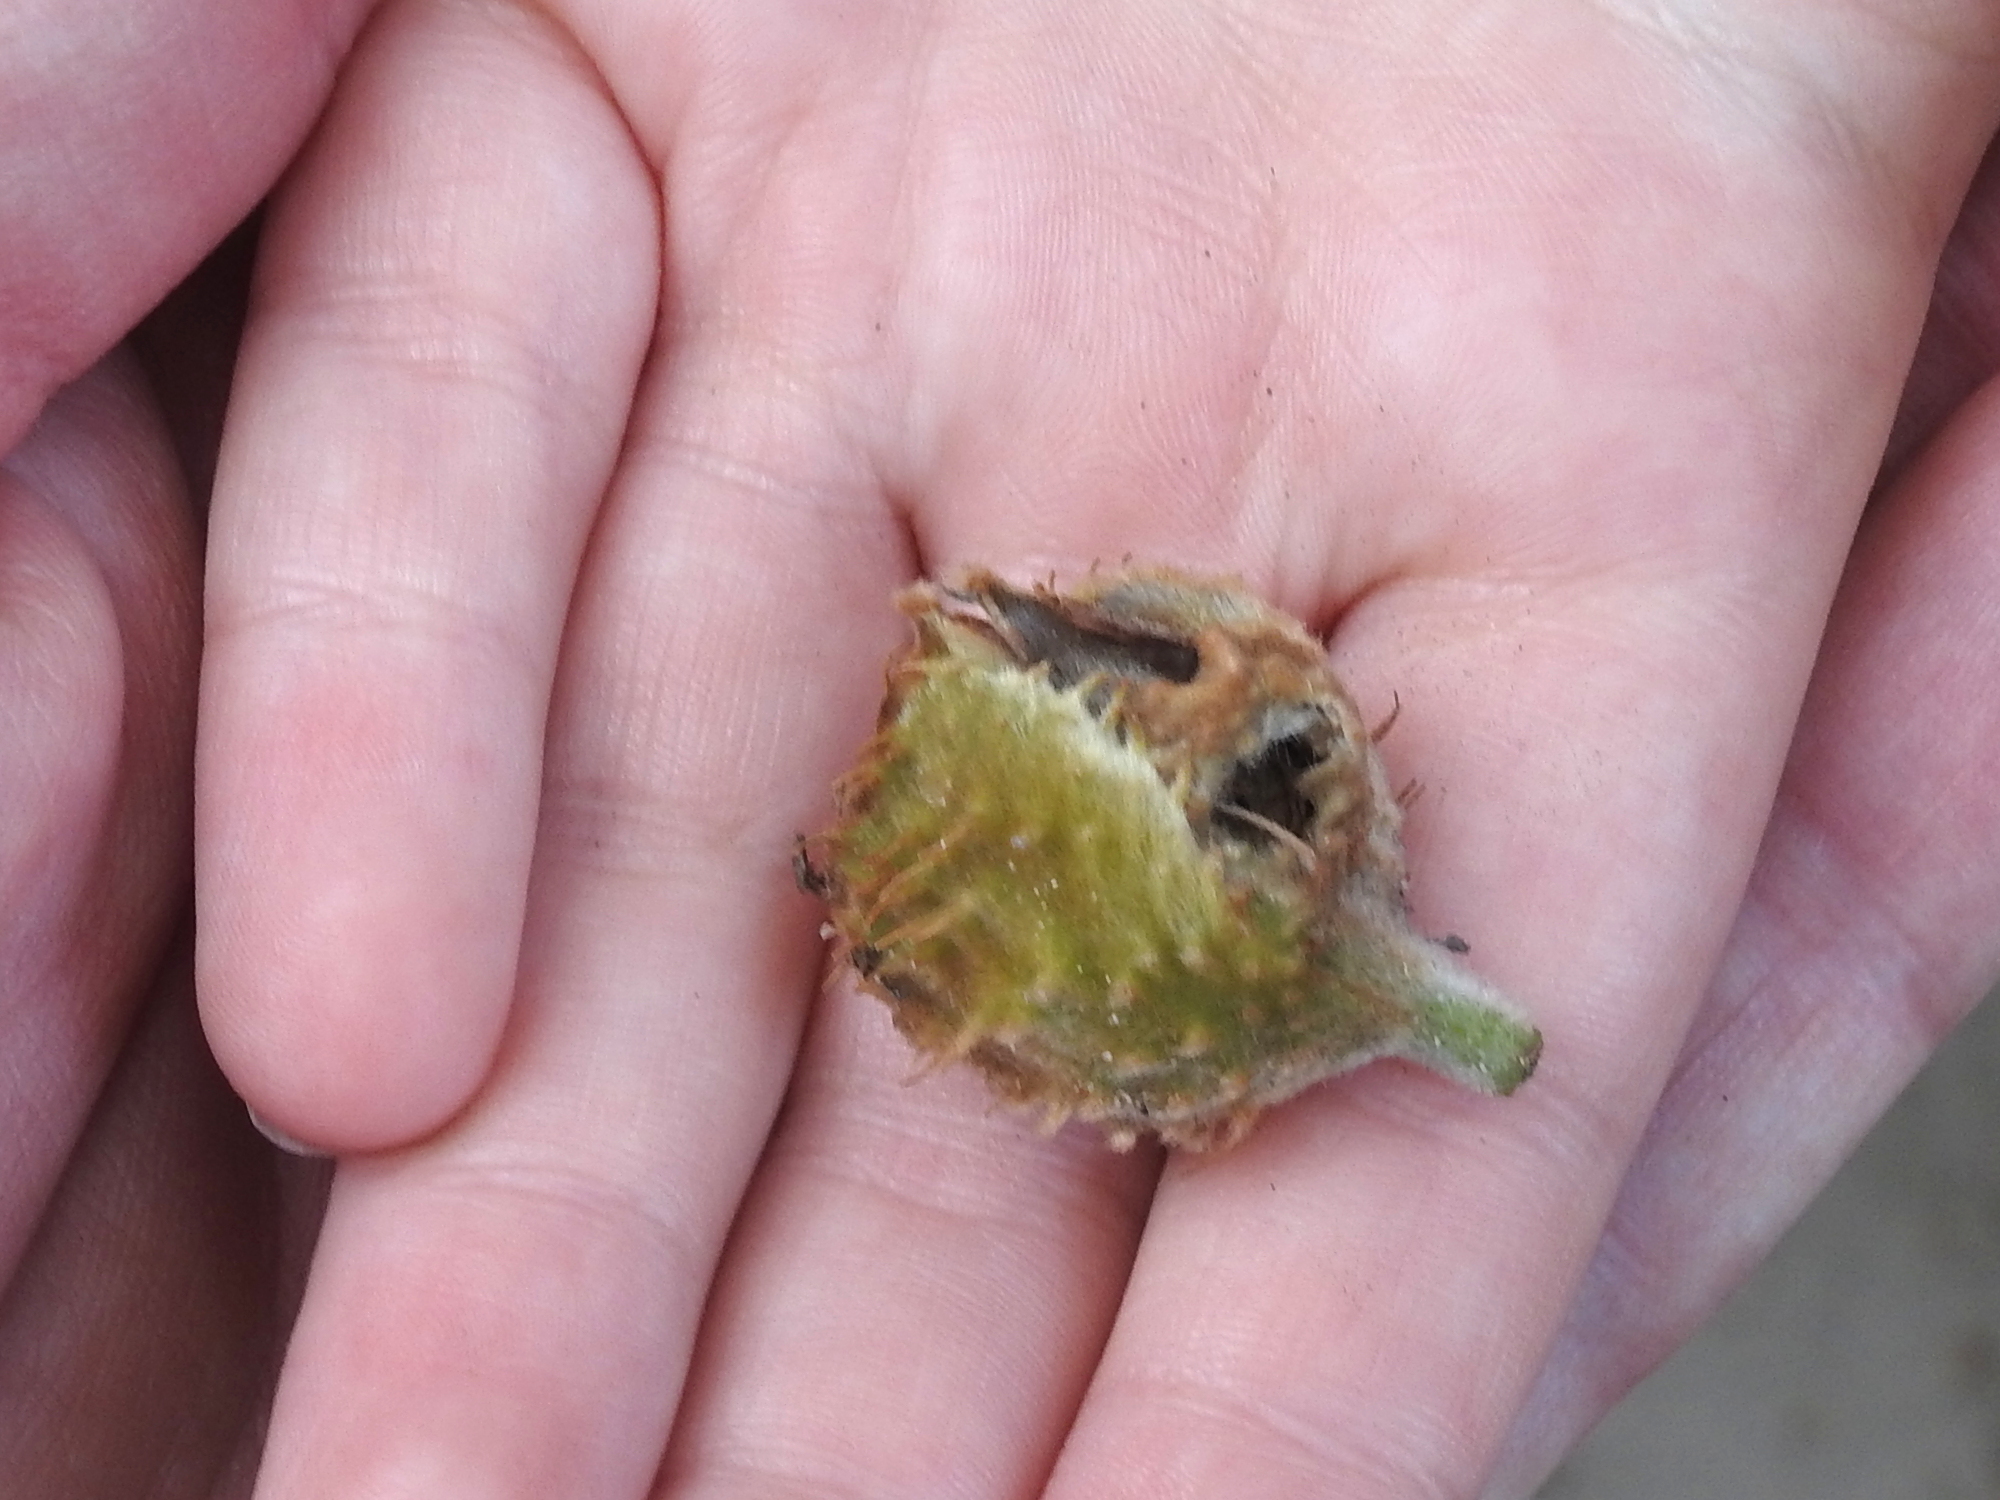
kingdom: Plantae
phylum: Tracheophyta
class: Magnoliopsida
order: Fagales
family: Fagaceae
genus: Fagus
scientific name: Fagus sylvatica
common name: Beech
